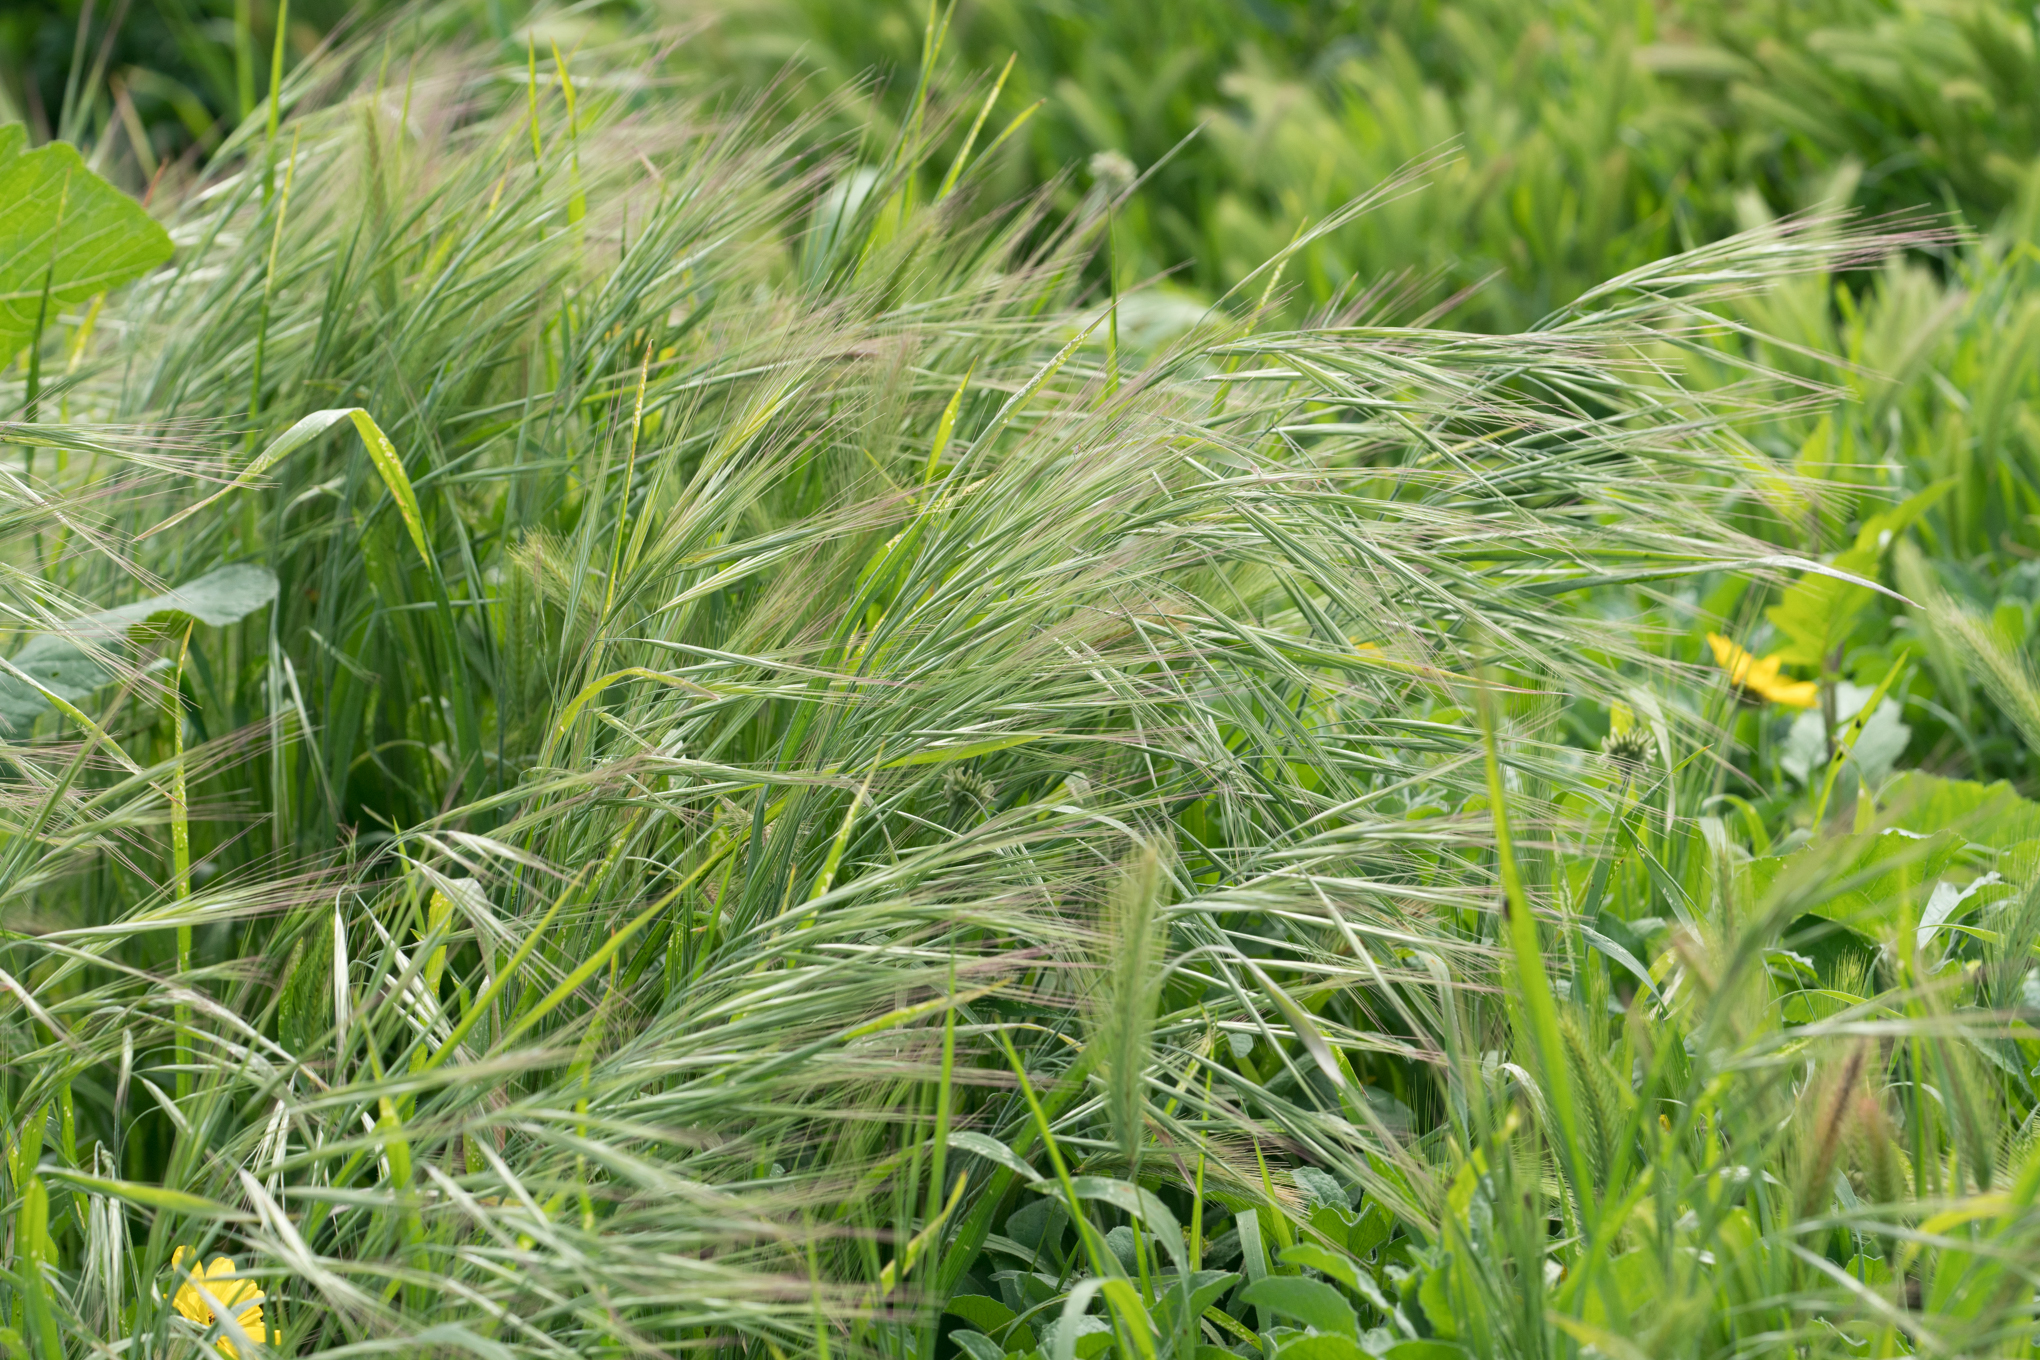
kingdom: Plantae
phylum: Tracheophyta
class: Liliopsida
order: Poales
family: Poaceae
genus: Bromus
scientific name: Bromus diandrus
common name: Ripgut brome
